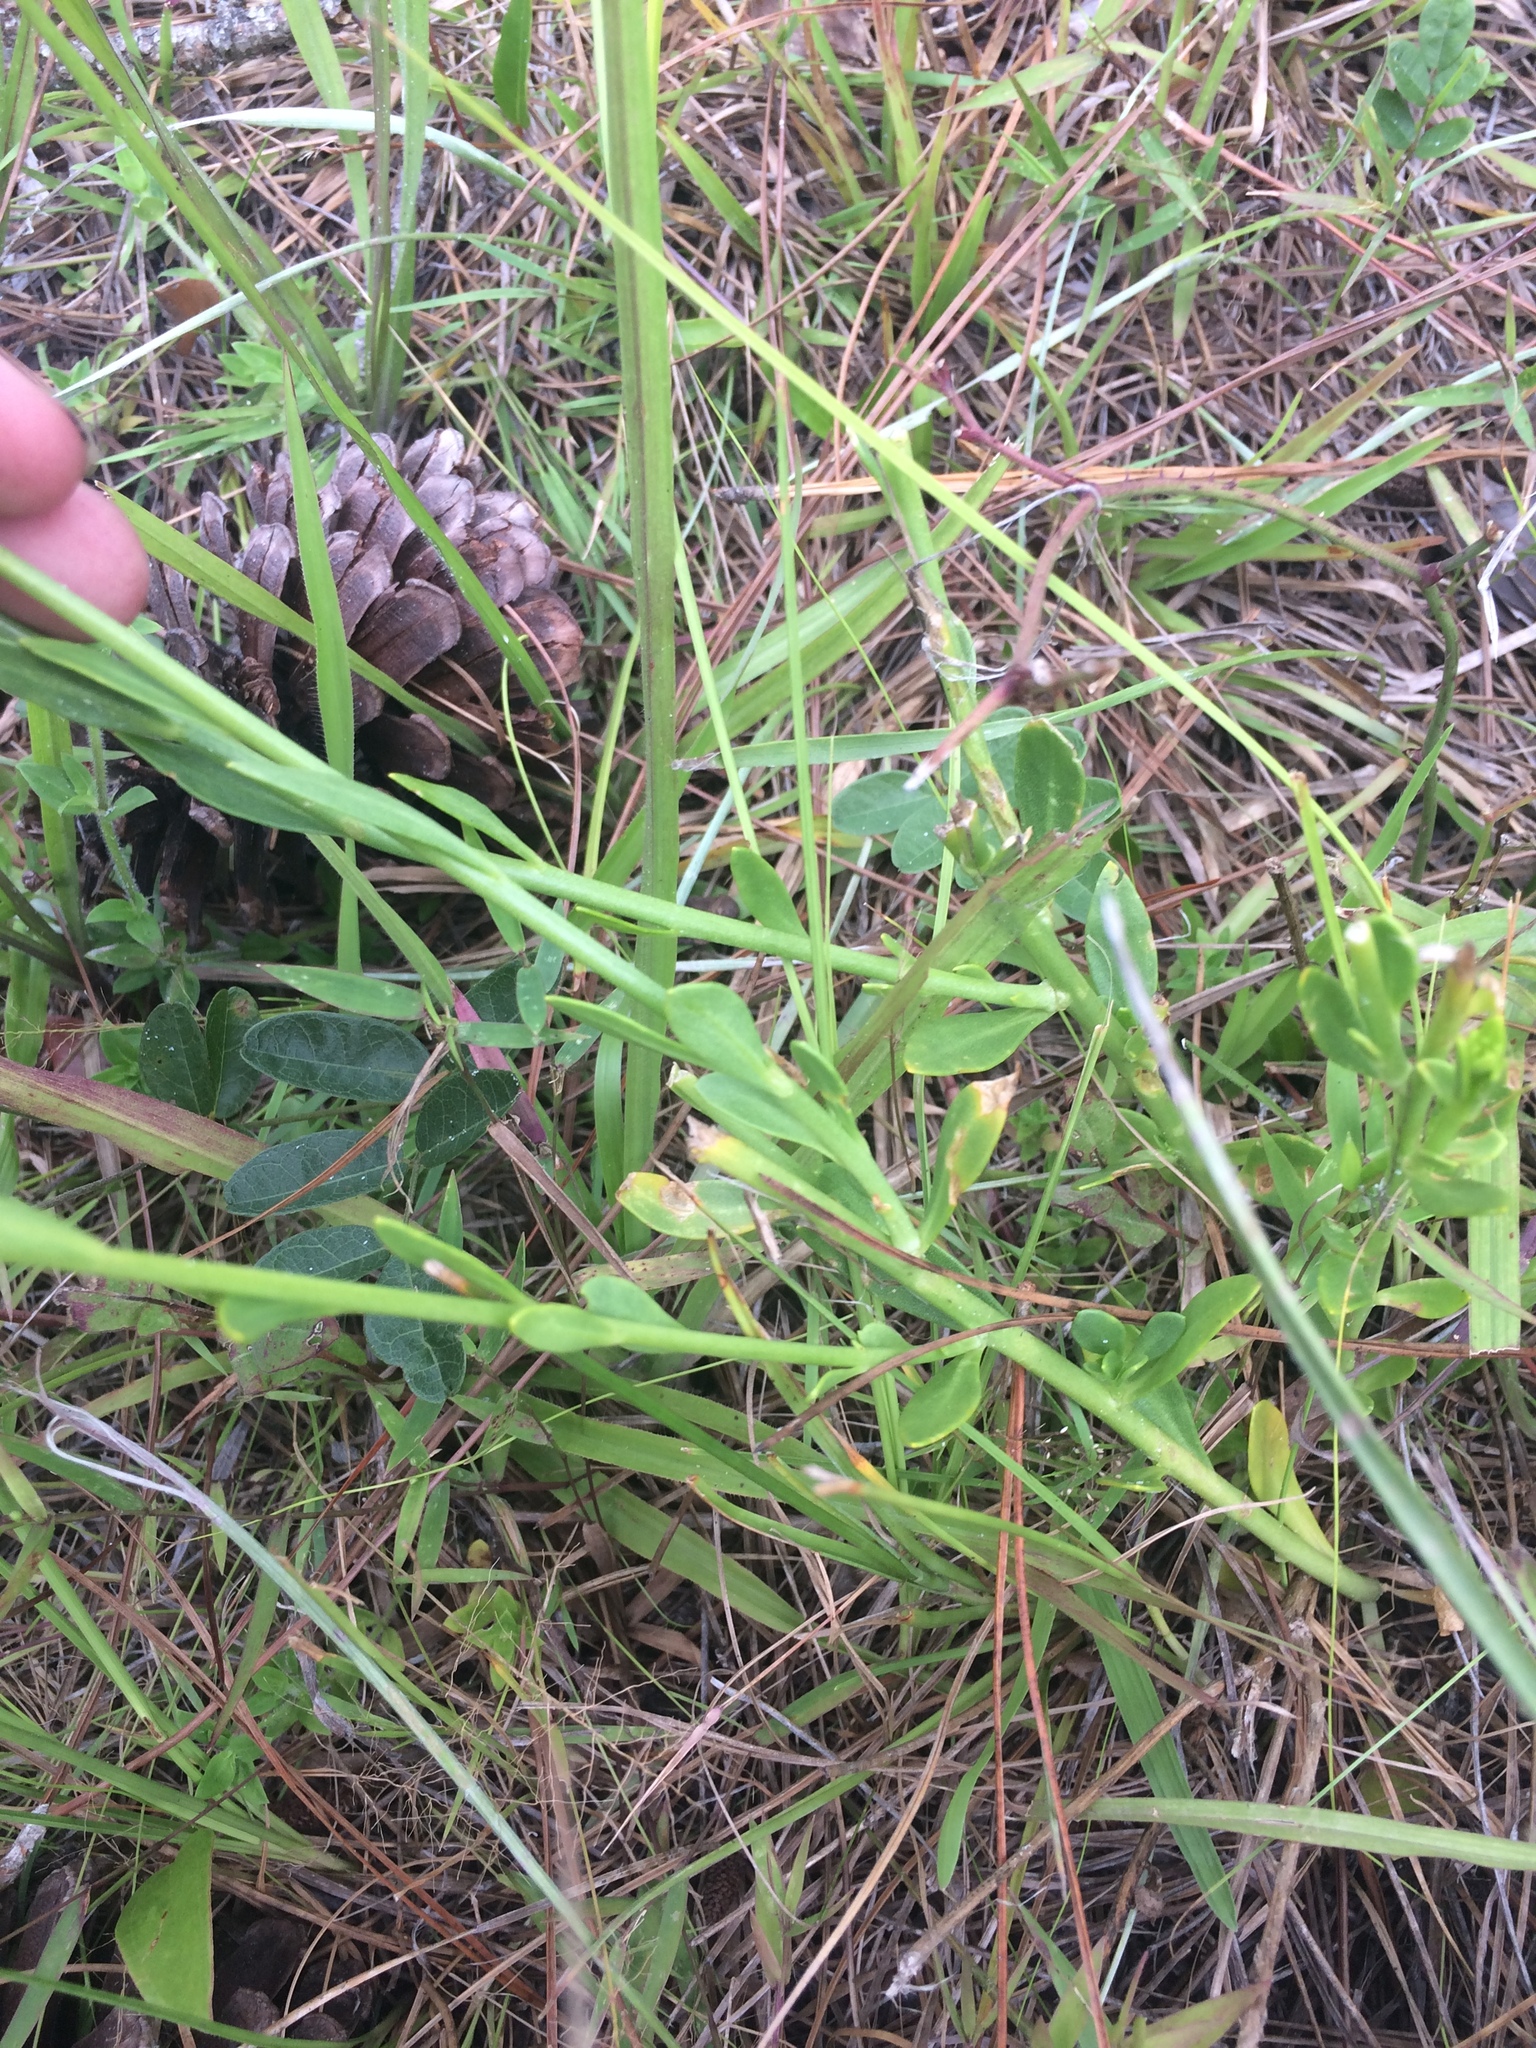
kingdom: Plantae
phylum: Tracheophyta
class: Magnoliopsida
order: Fabales
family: Polygalaceae
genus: Polygala
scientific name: Polygala rugelii
